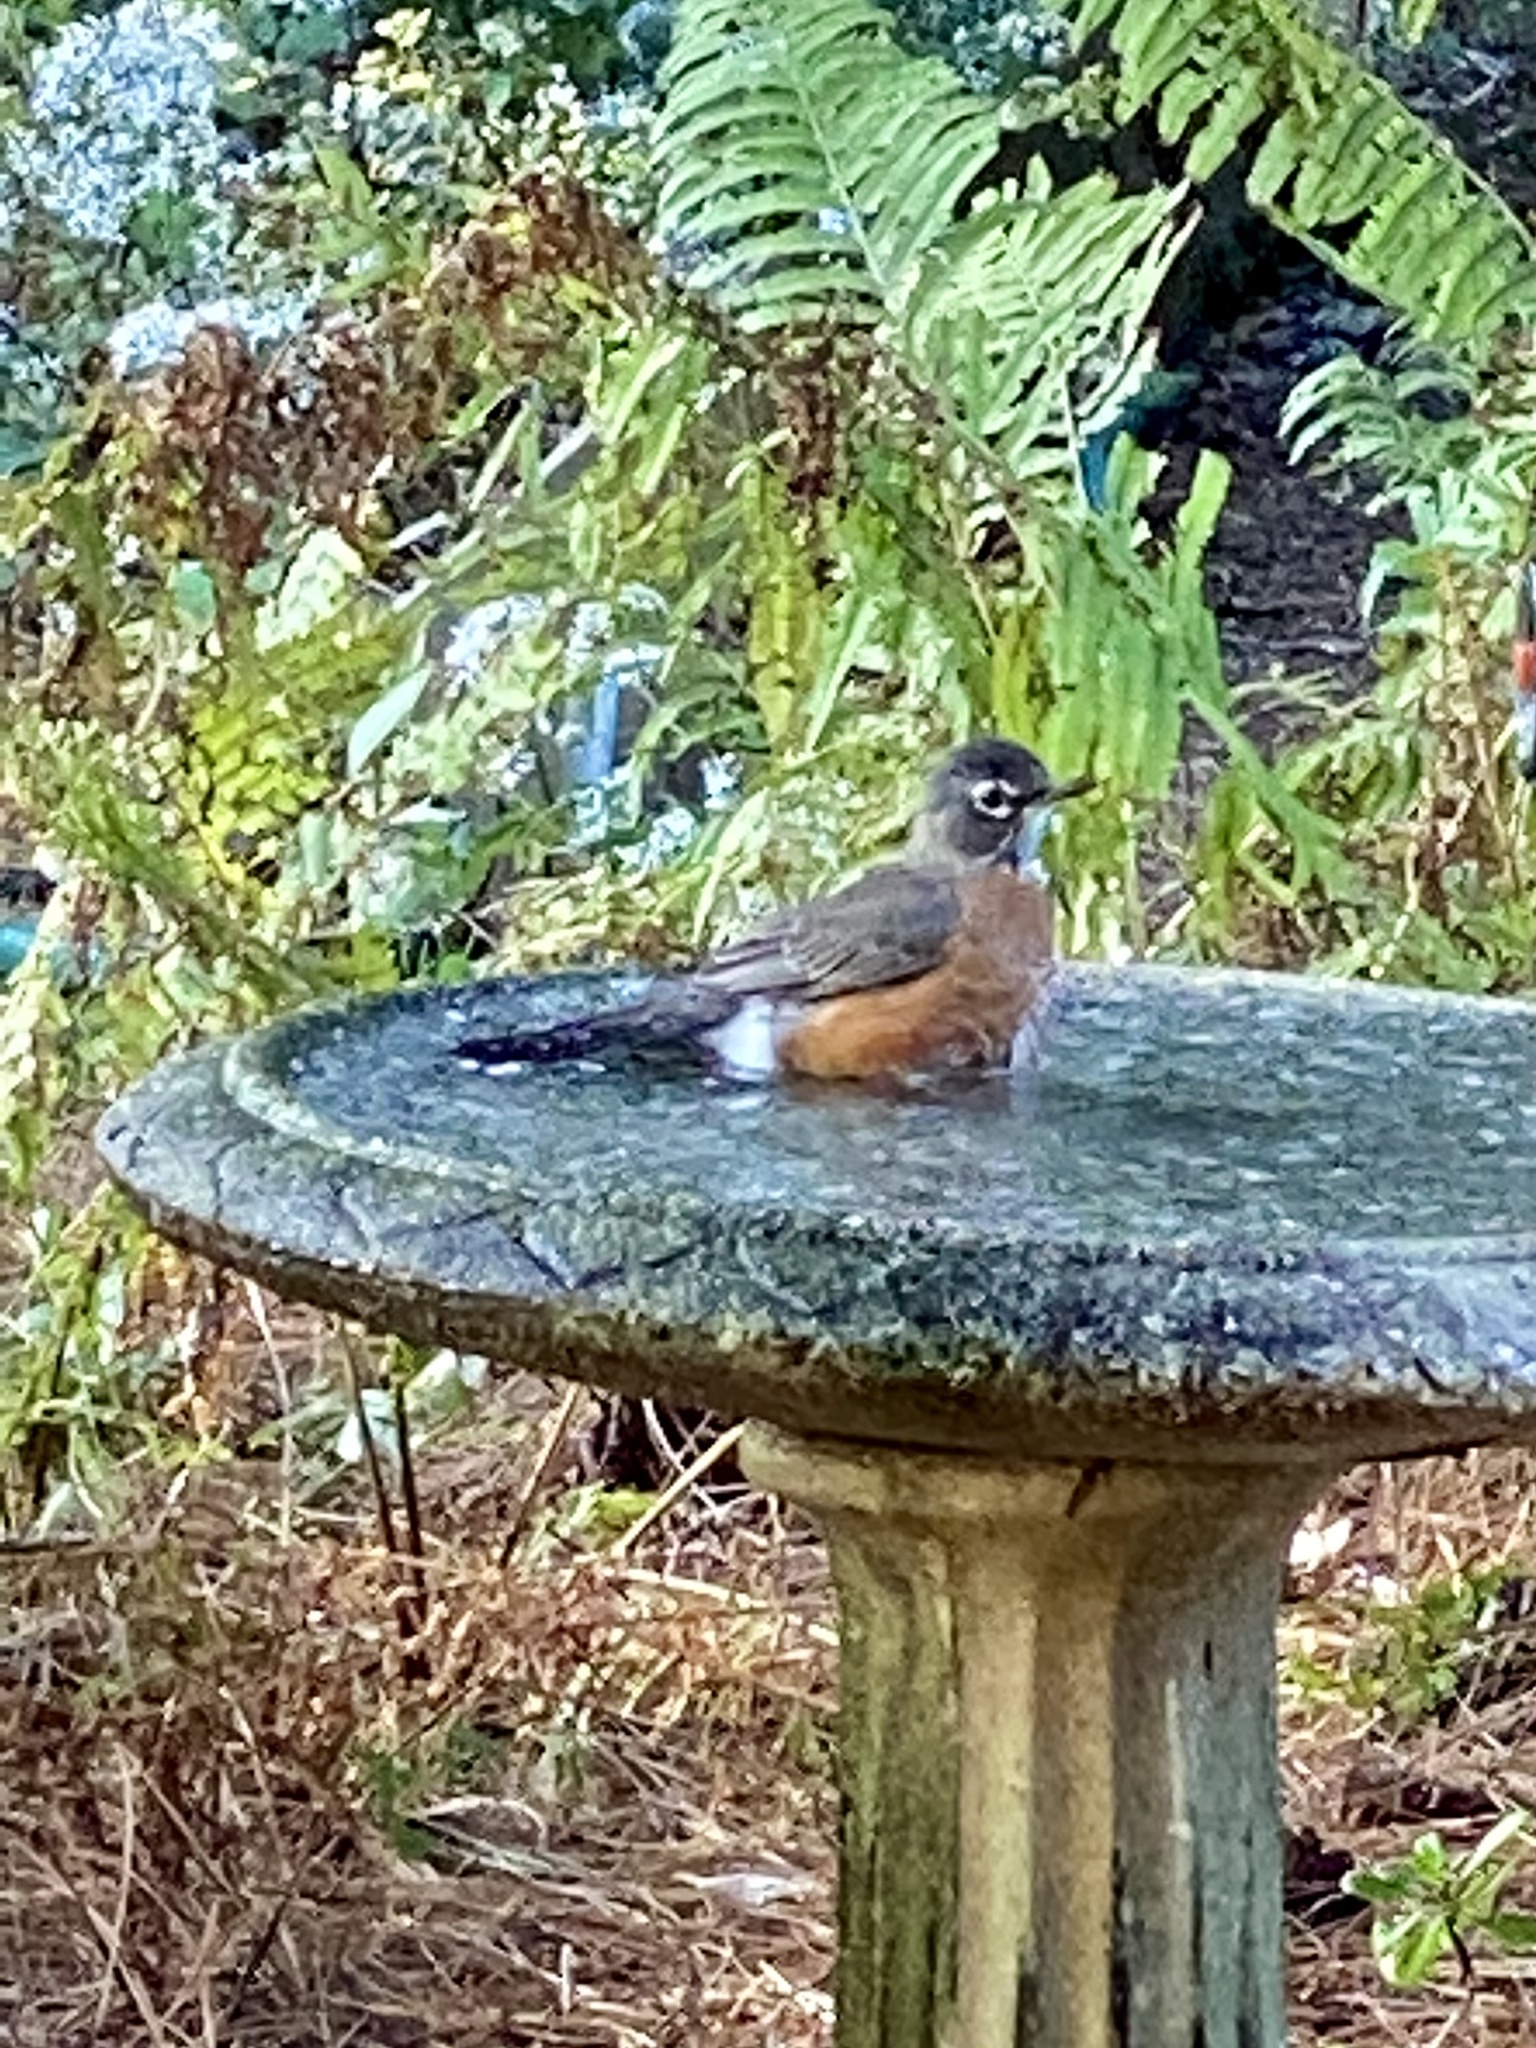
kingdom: Animalia
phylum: Chordata
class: Aves
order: Passeriformes
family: Turdidae
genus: Turdus
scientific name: Turdus migratorius
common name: American robin
